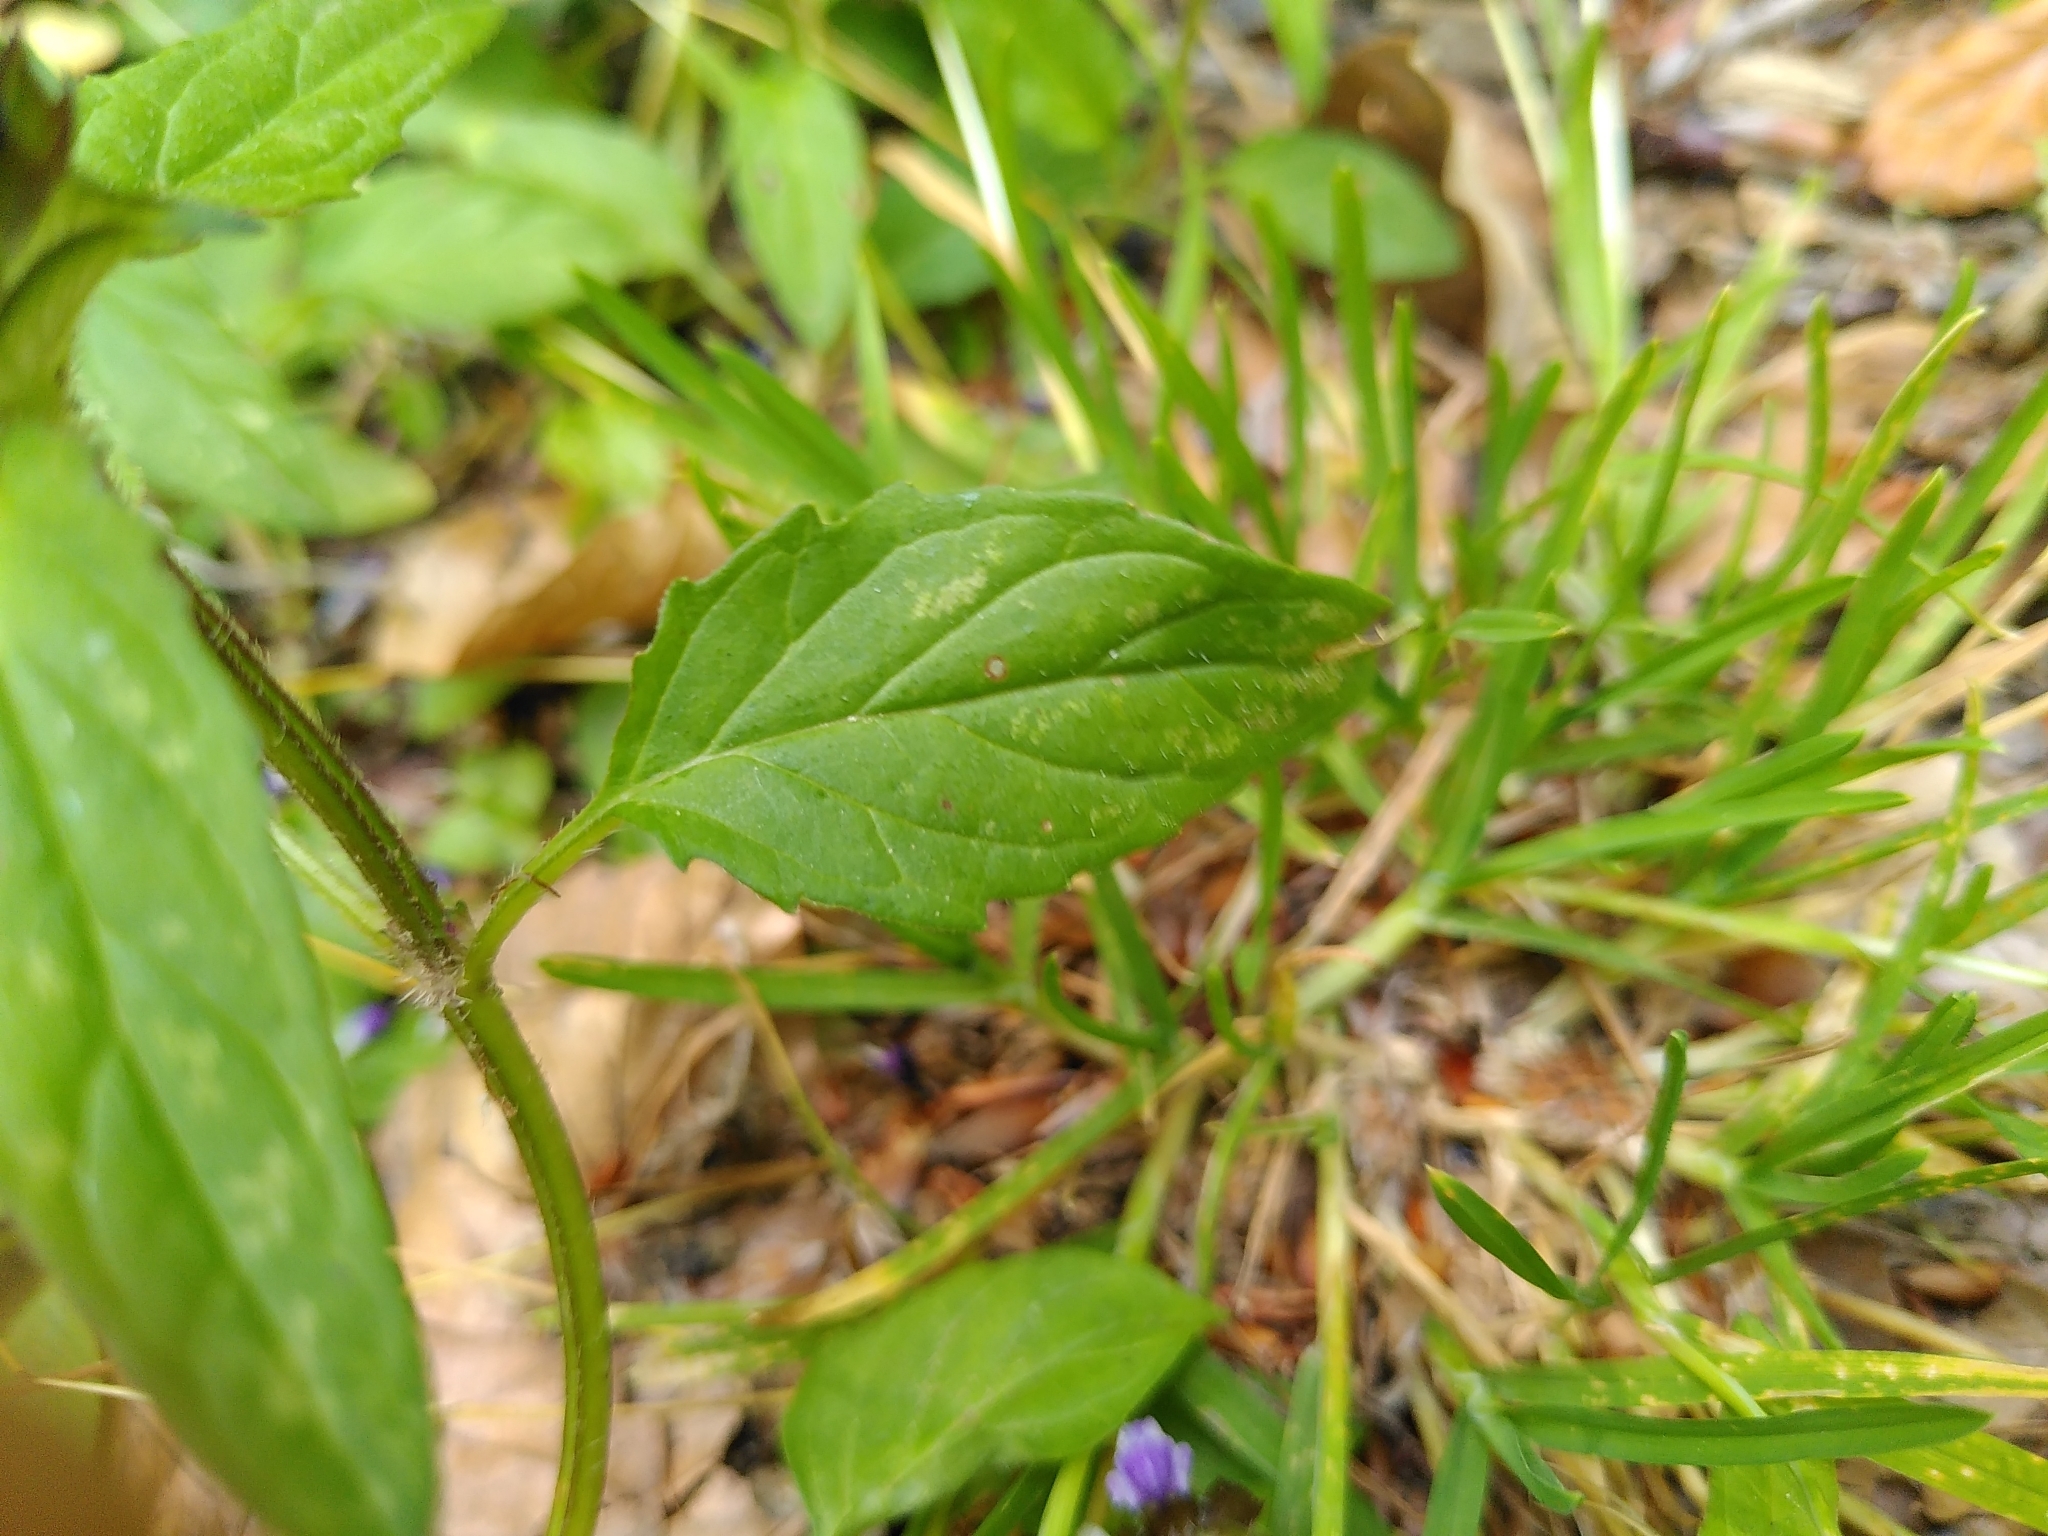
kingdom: Plantae
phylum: Tracheophyta
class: Magnoliopsida
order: Lamiales
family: Lamiaceae
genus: Prunella
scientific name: Prunella vulgaris
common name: Heal-all
